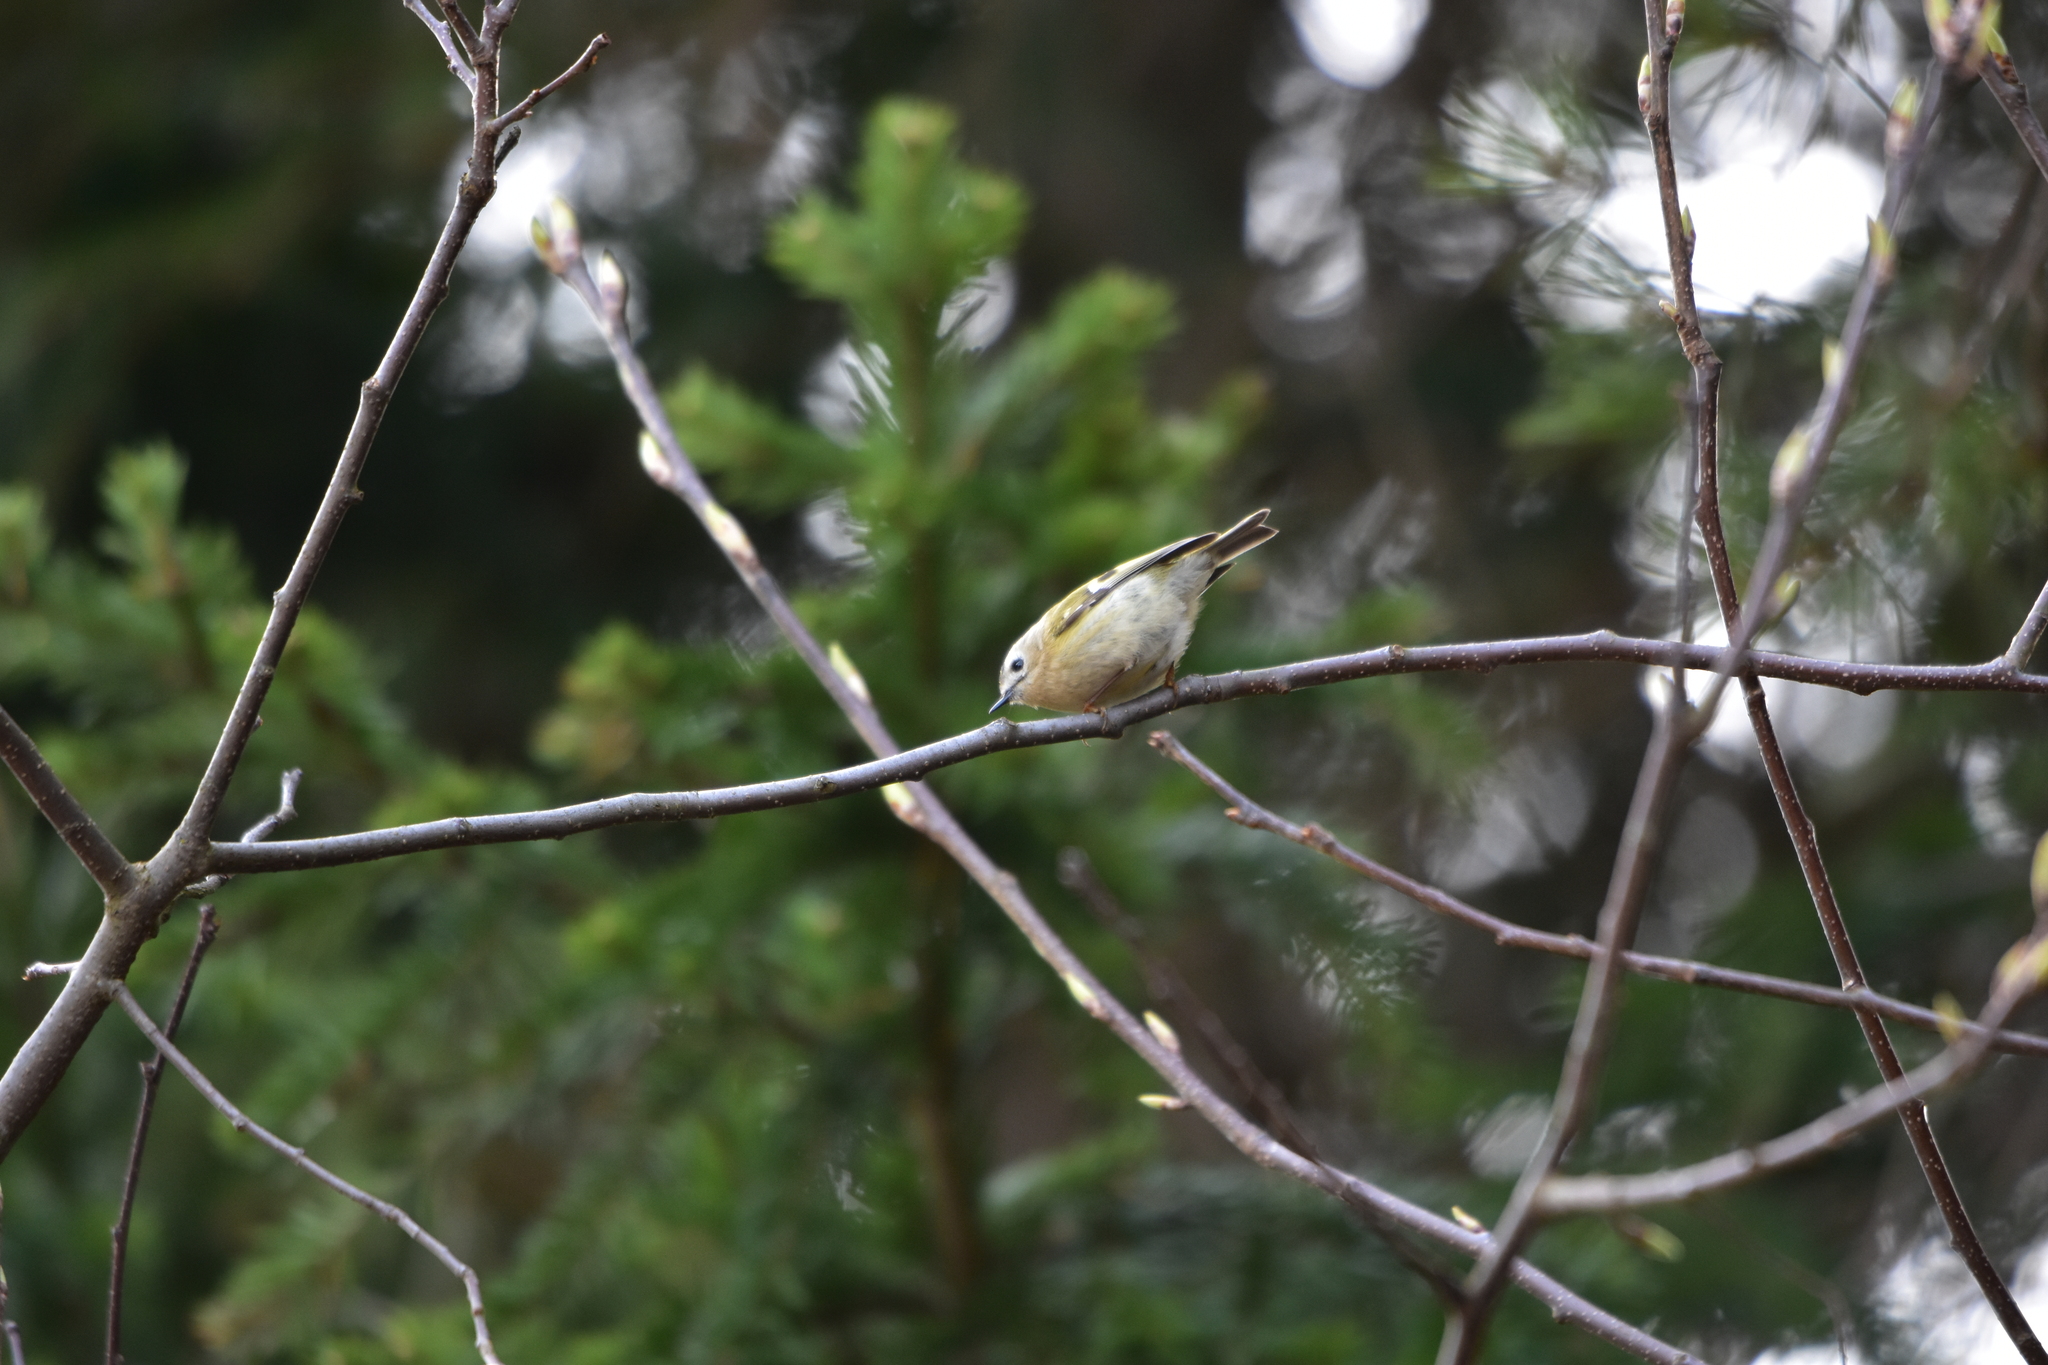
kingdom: Animalia
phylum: Chordata
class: Aves
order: Passeriformes
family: Regulidae
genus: Regulus
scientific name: Regulus regulus
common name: Goldcrest
